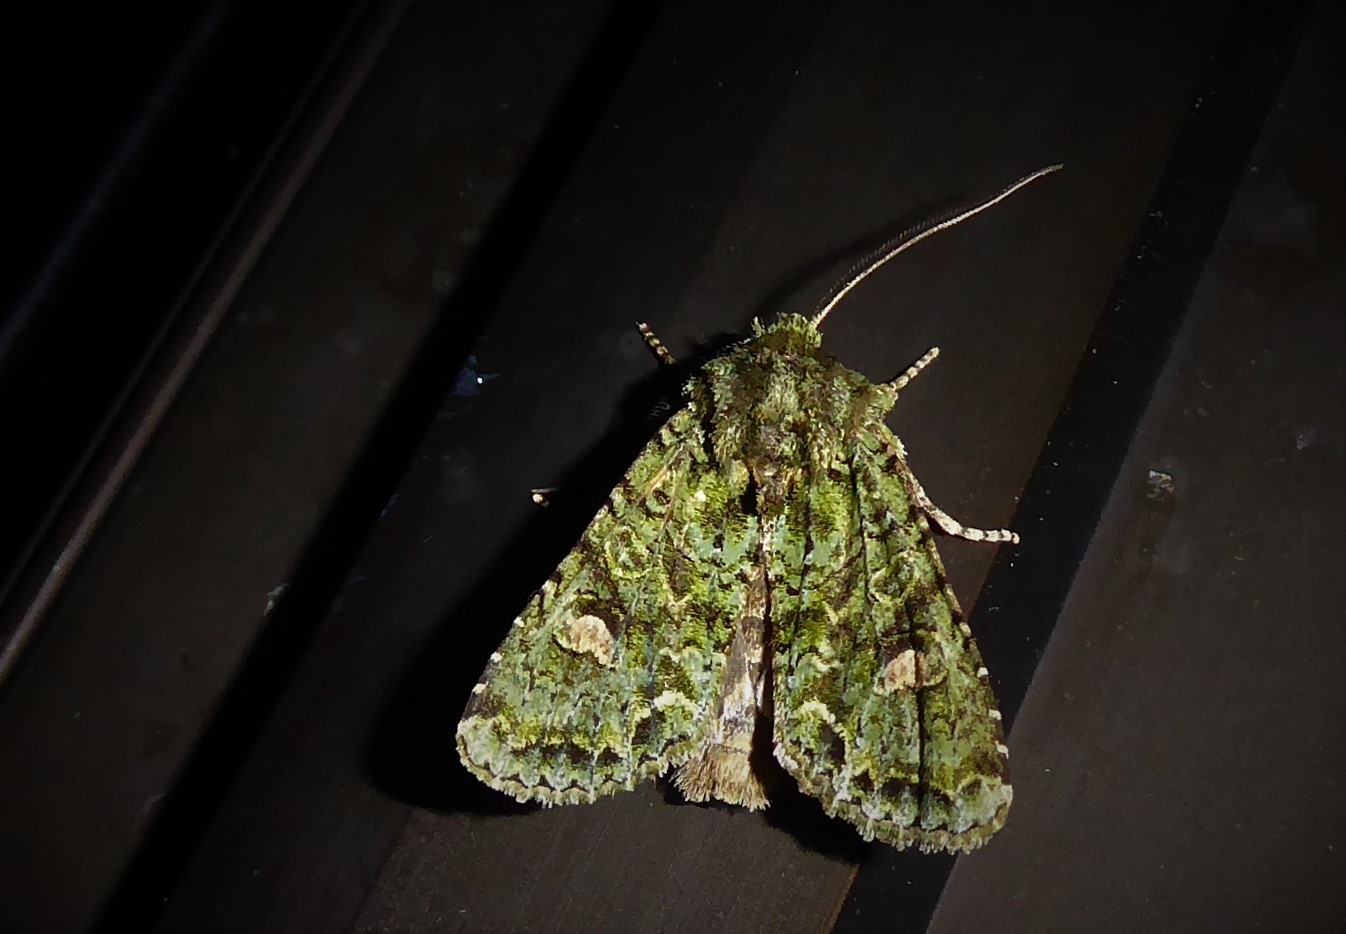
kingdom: Animalia
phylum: Arthropoda
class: Insecta
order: Lepidoptera
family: Noctuidae
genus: Ichneutica
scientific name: Ichneutica
